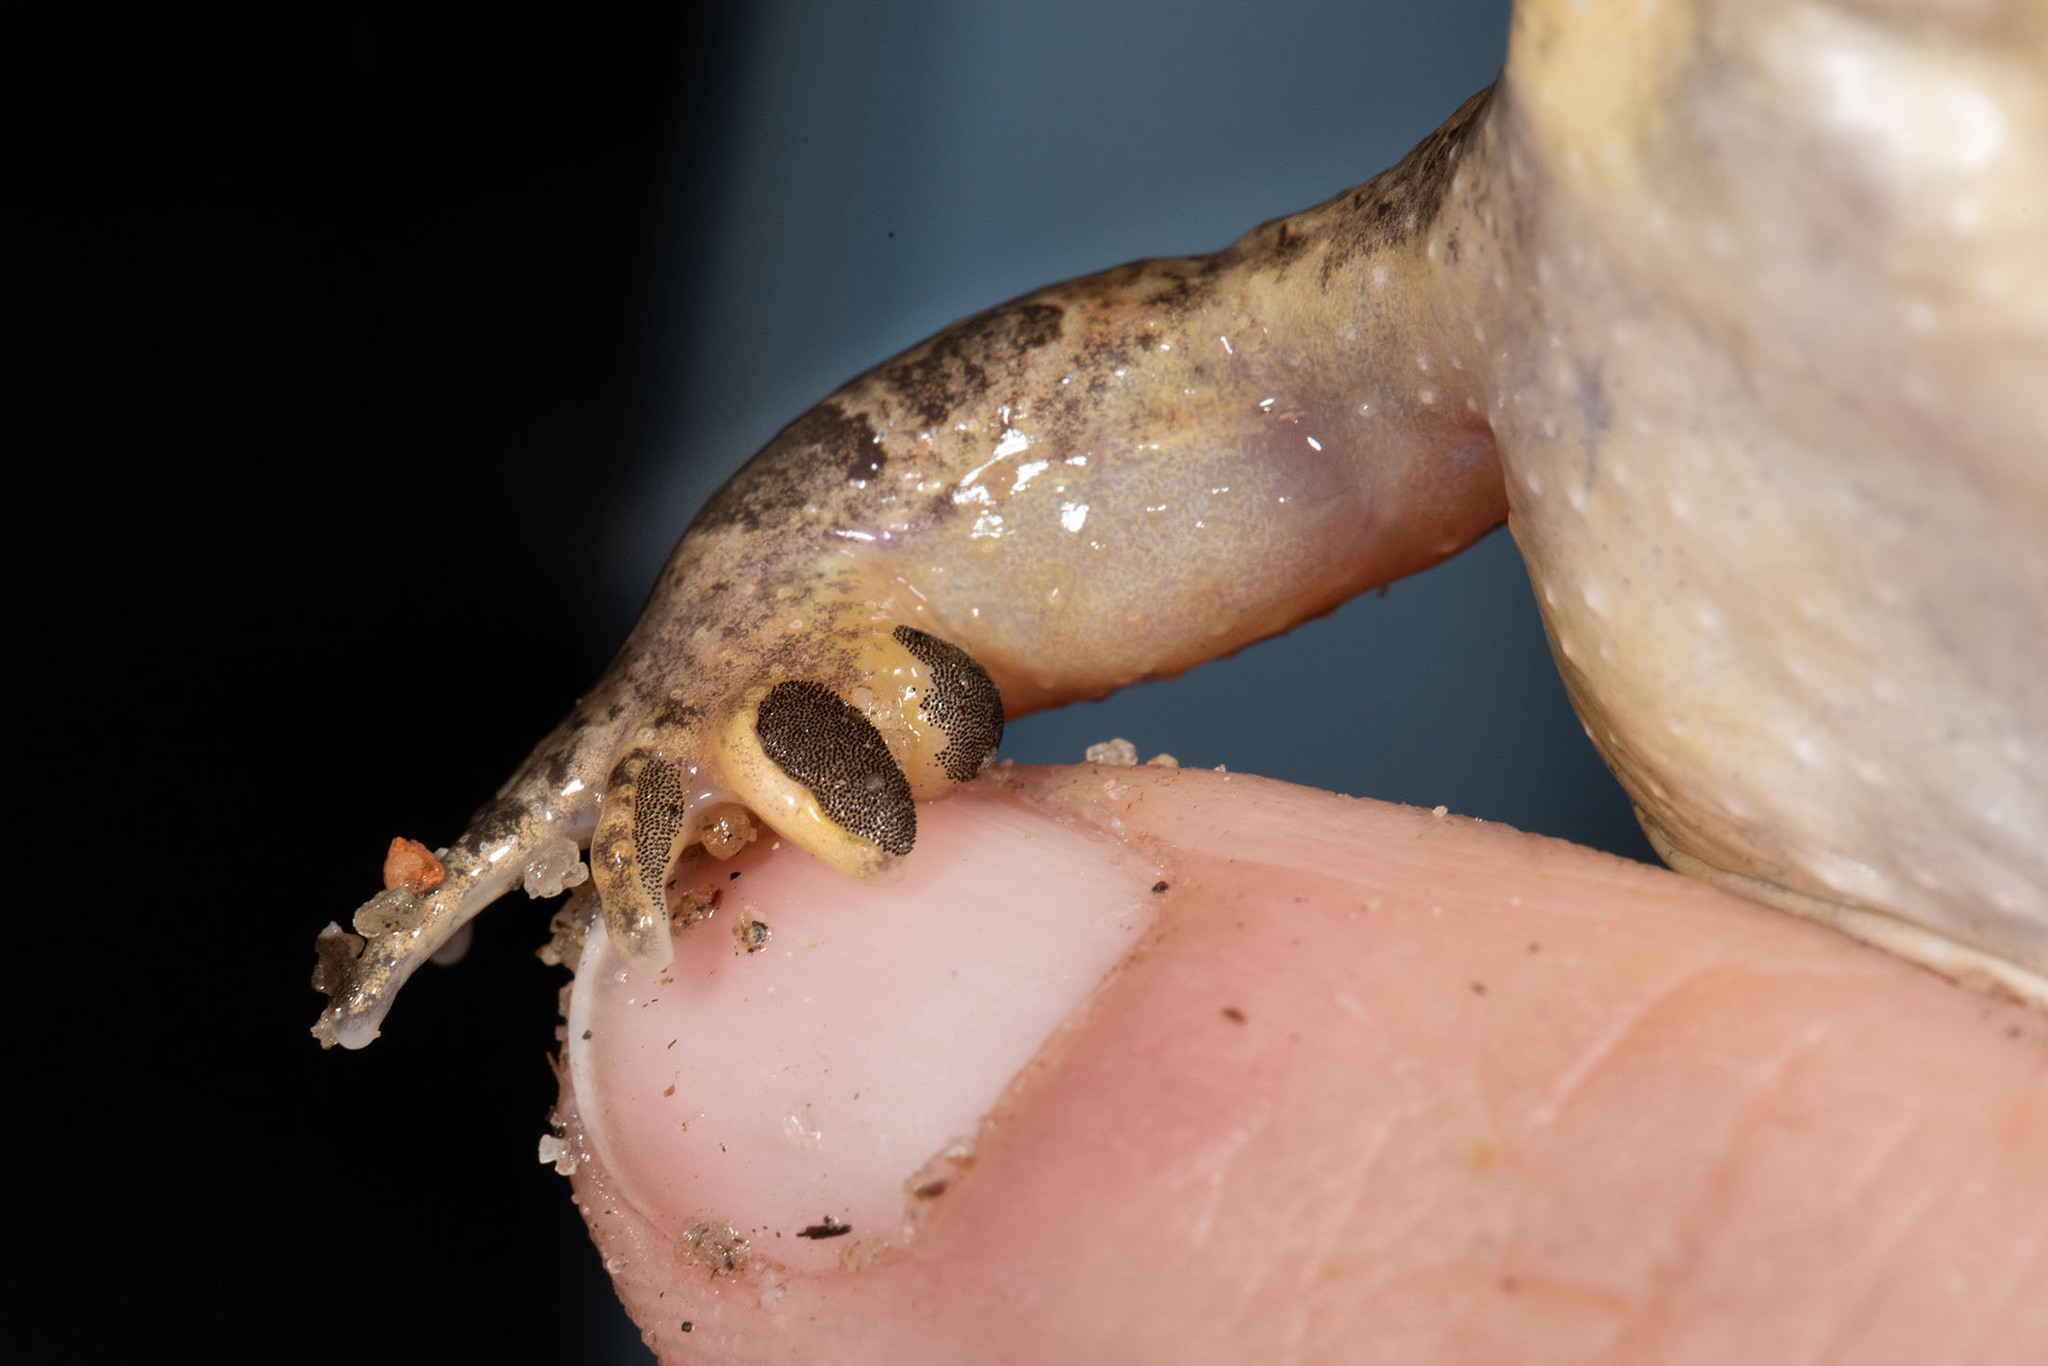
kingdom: Animalia
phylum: Chordata
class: Amphibia
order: Anura
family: Alytidae
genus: Discoglossus
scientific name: Discoglossus galganoi
